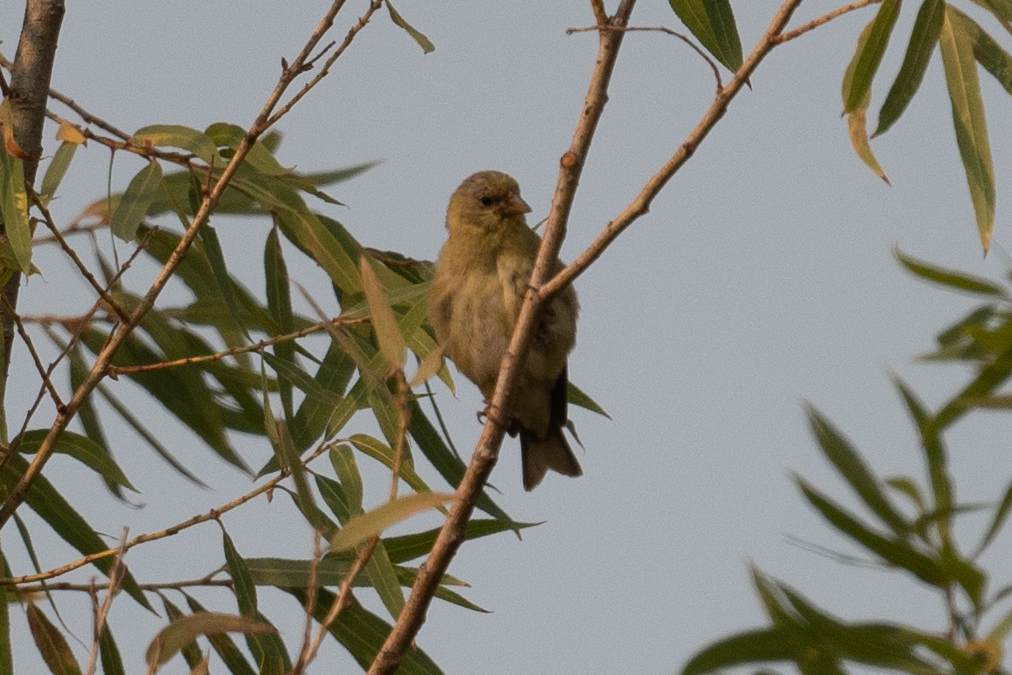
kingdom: Animalia
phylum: Chordata
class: Aves
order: Passeriformes
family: Fringillidae
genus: Spinus
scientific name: Spinus psaltria
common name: Lesser goldfinch
